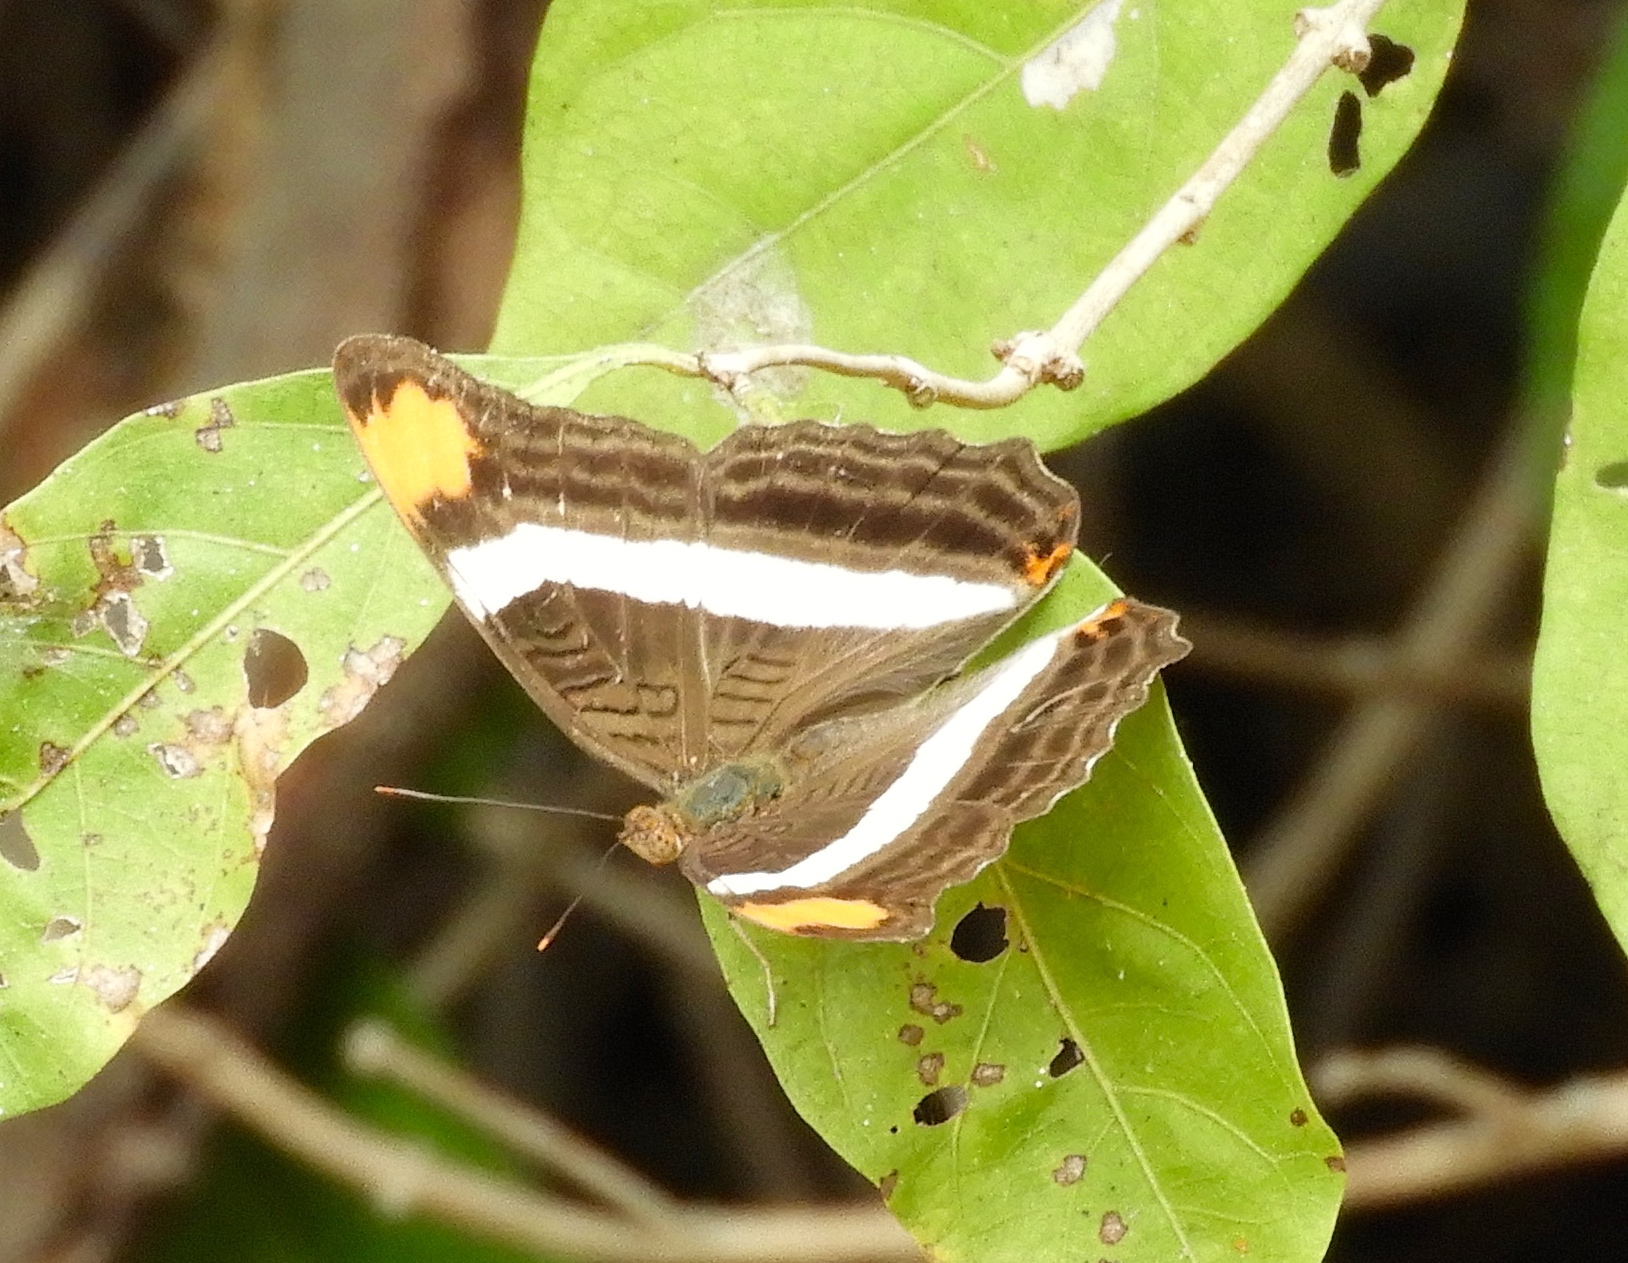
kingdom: Animalia
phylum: Arthropoda
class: Insecta
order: Lepidoptera
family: Nymphalidae
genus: Limenitis
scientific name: Limenitis fessonia
